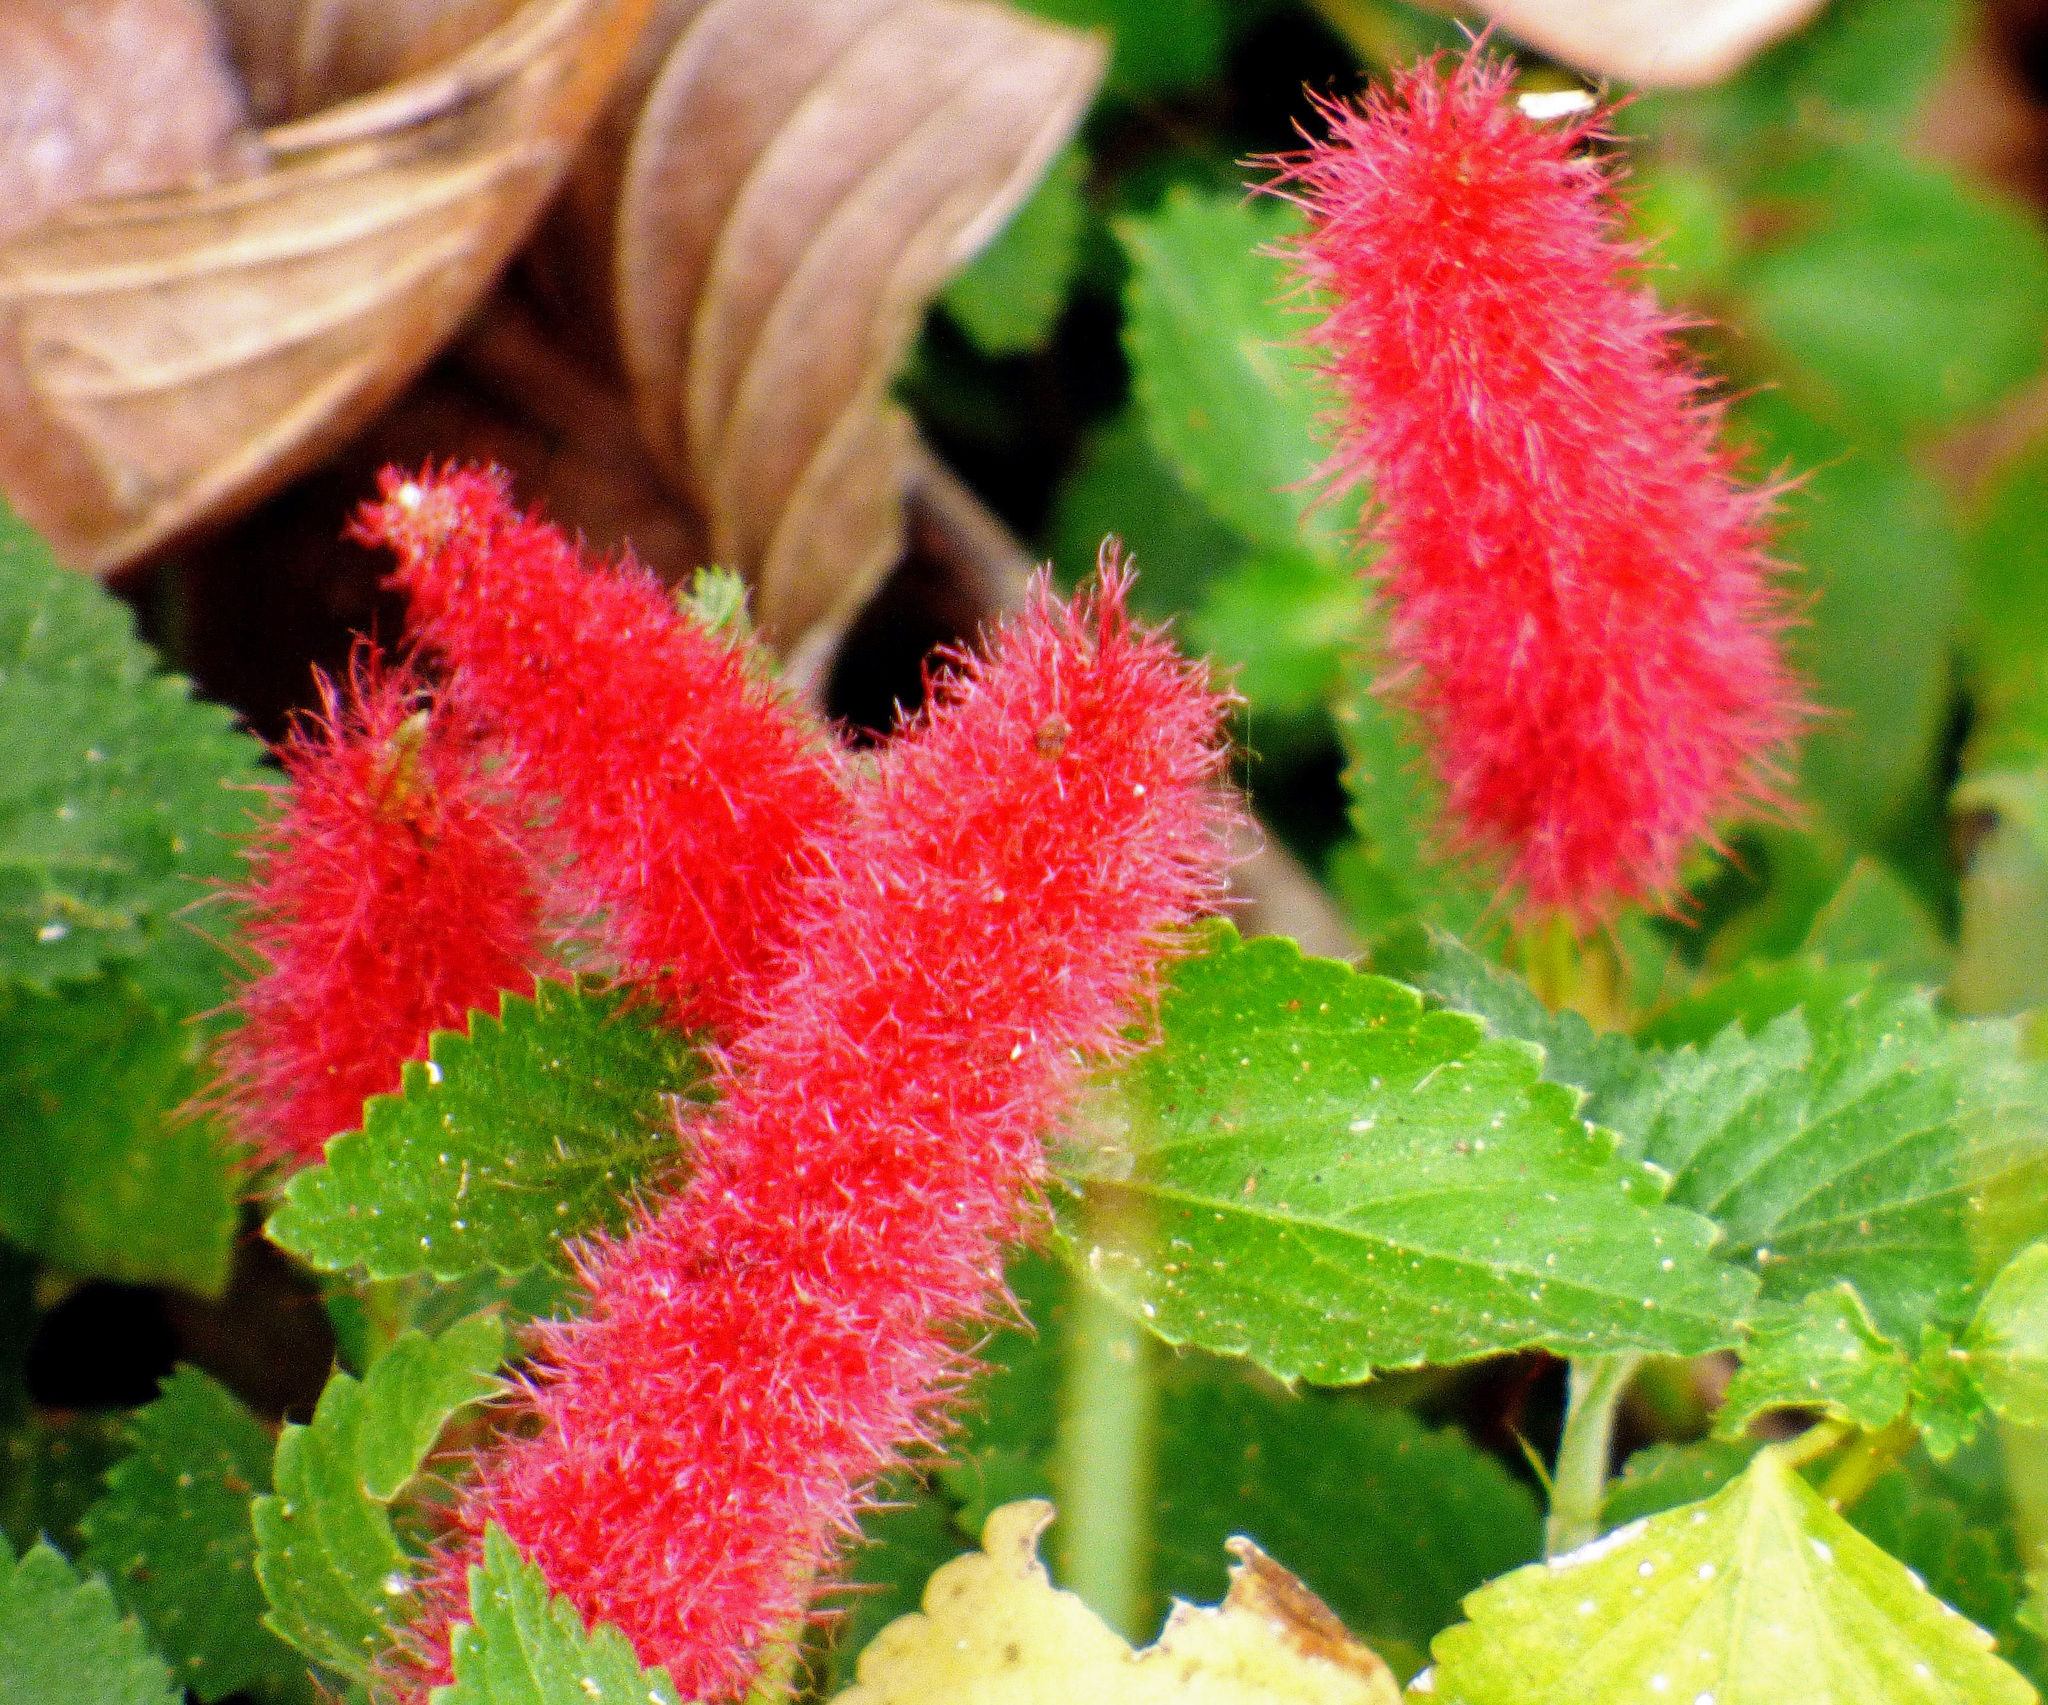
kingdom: Plantae
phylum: Tracheophyta
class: Magnoliopsida
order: Malpighiales
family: Euphorbiaceae
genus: Acalypha
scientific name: Acalypha herzogiana
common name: Dwarf-cattail
